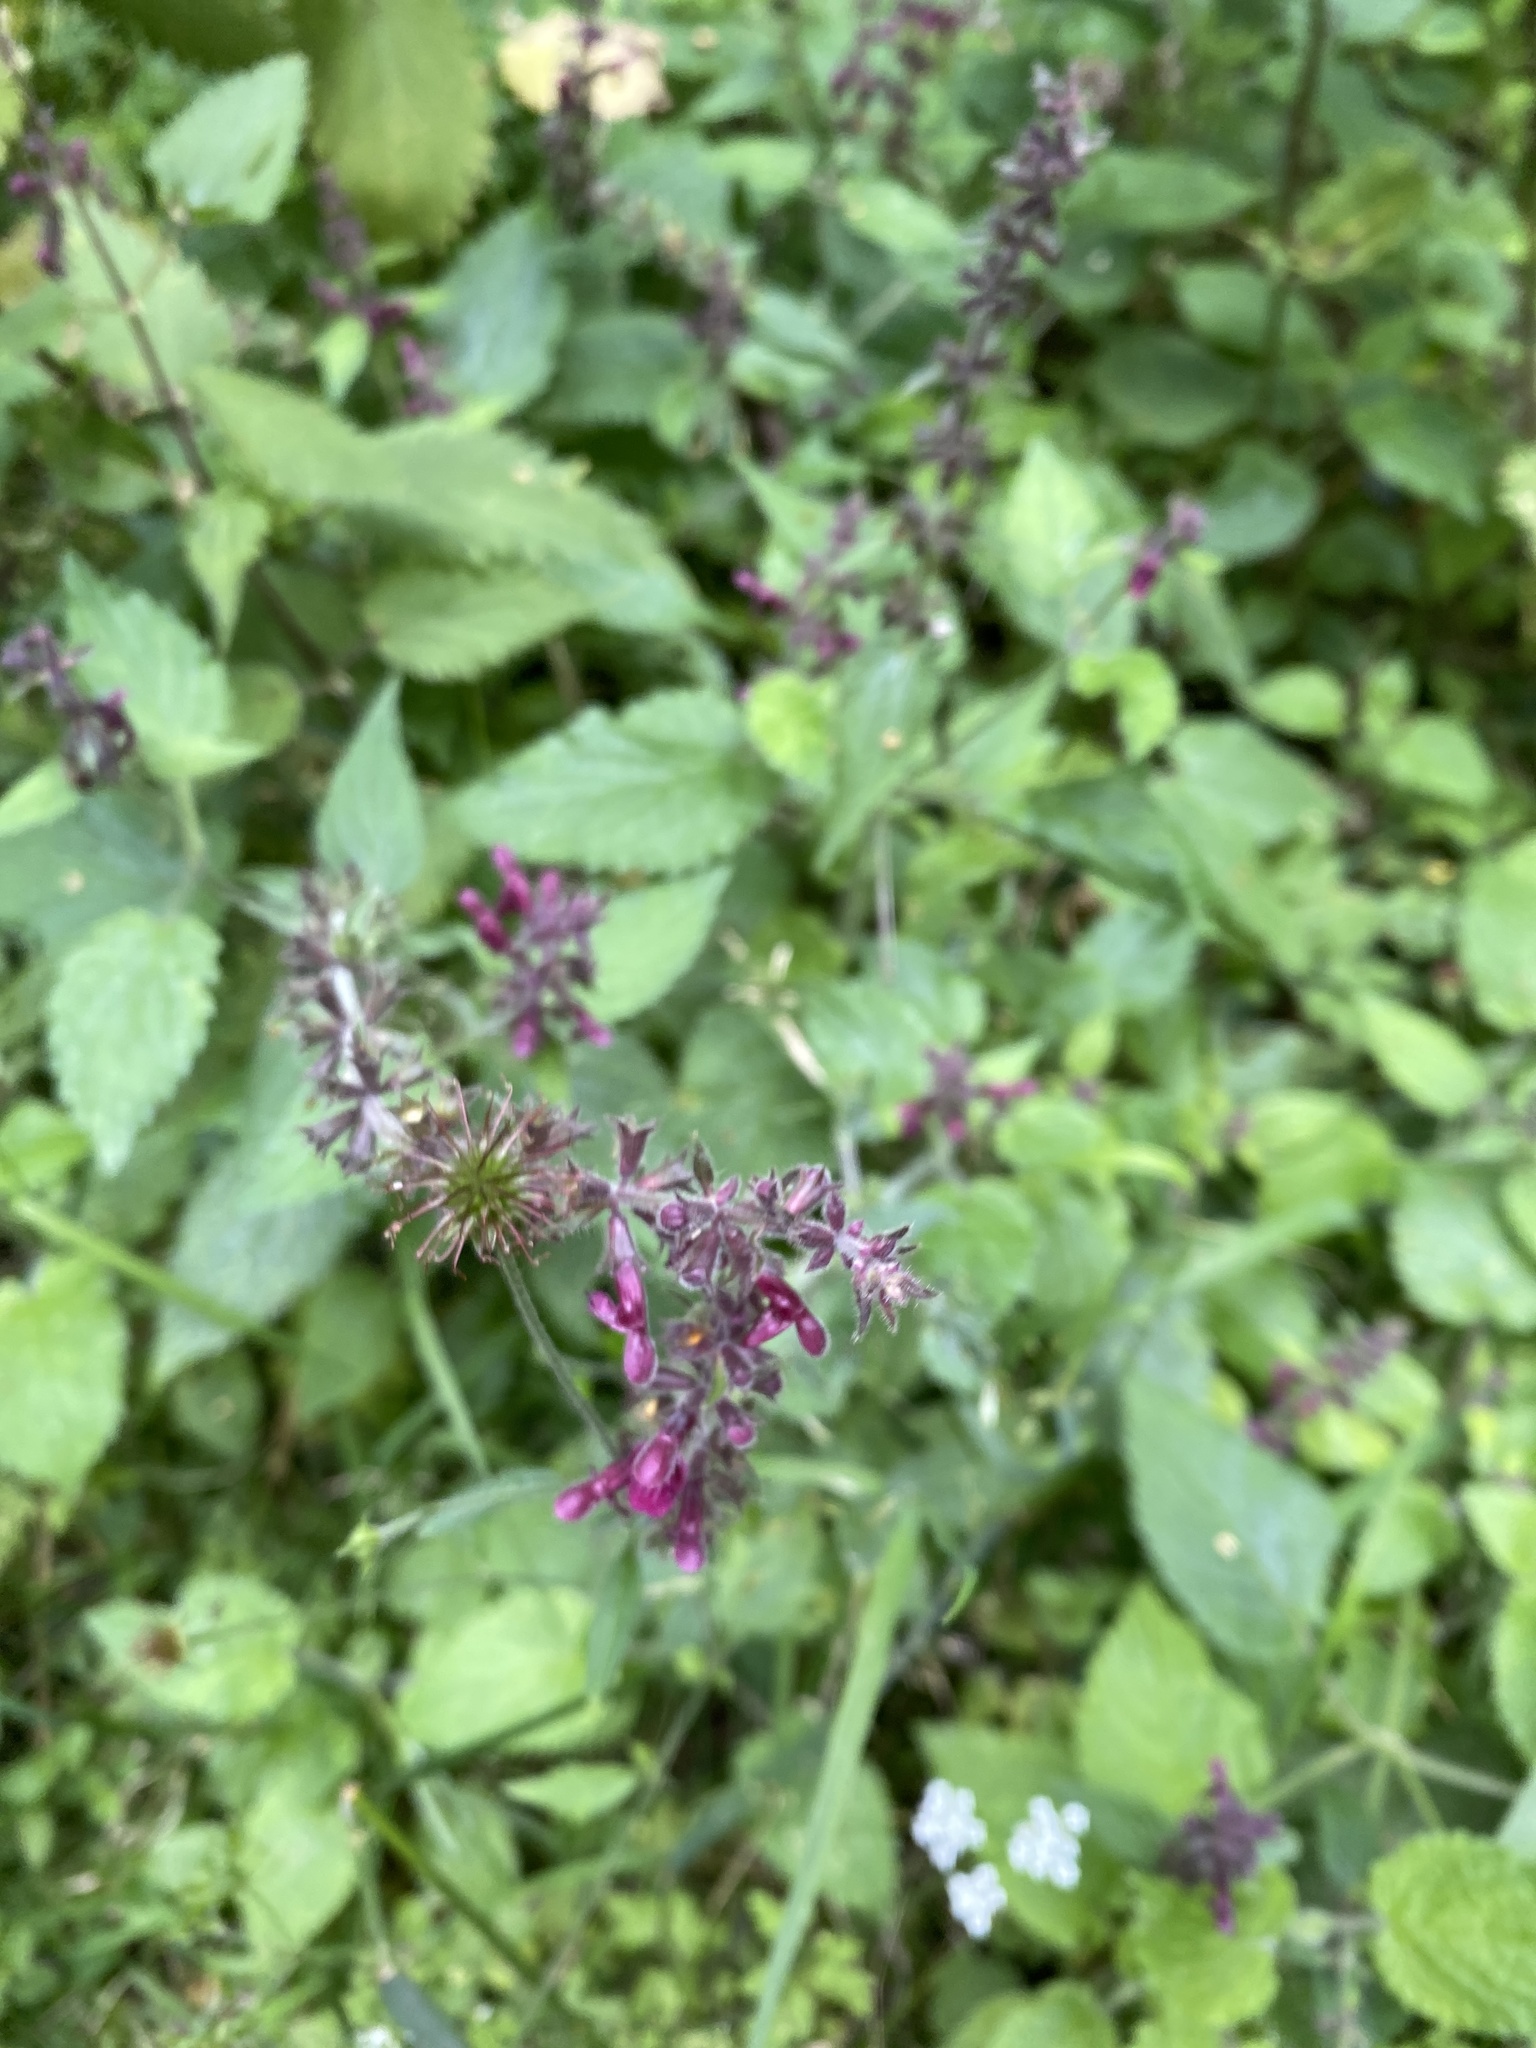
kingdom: Plantae
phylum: Tracheophyta
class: Magnoliopsida
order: Lamiales
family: Lamiaceae
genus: Stachys
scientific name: Stachys sylvatica
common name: Hedge woundwort
